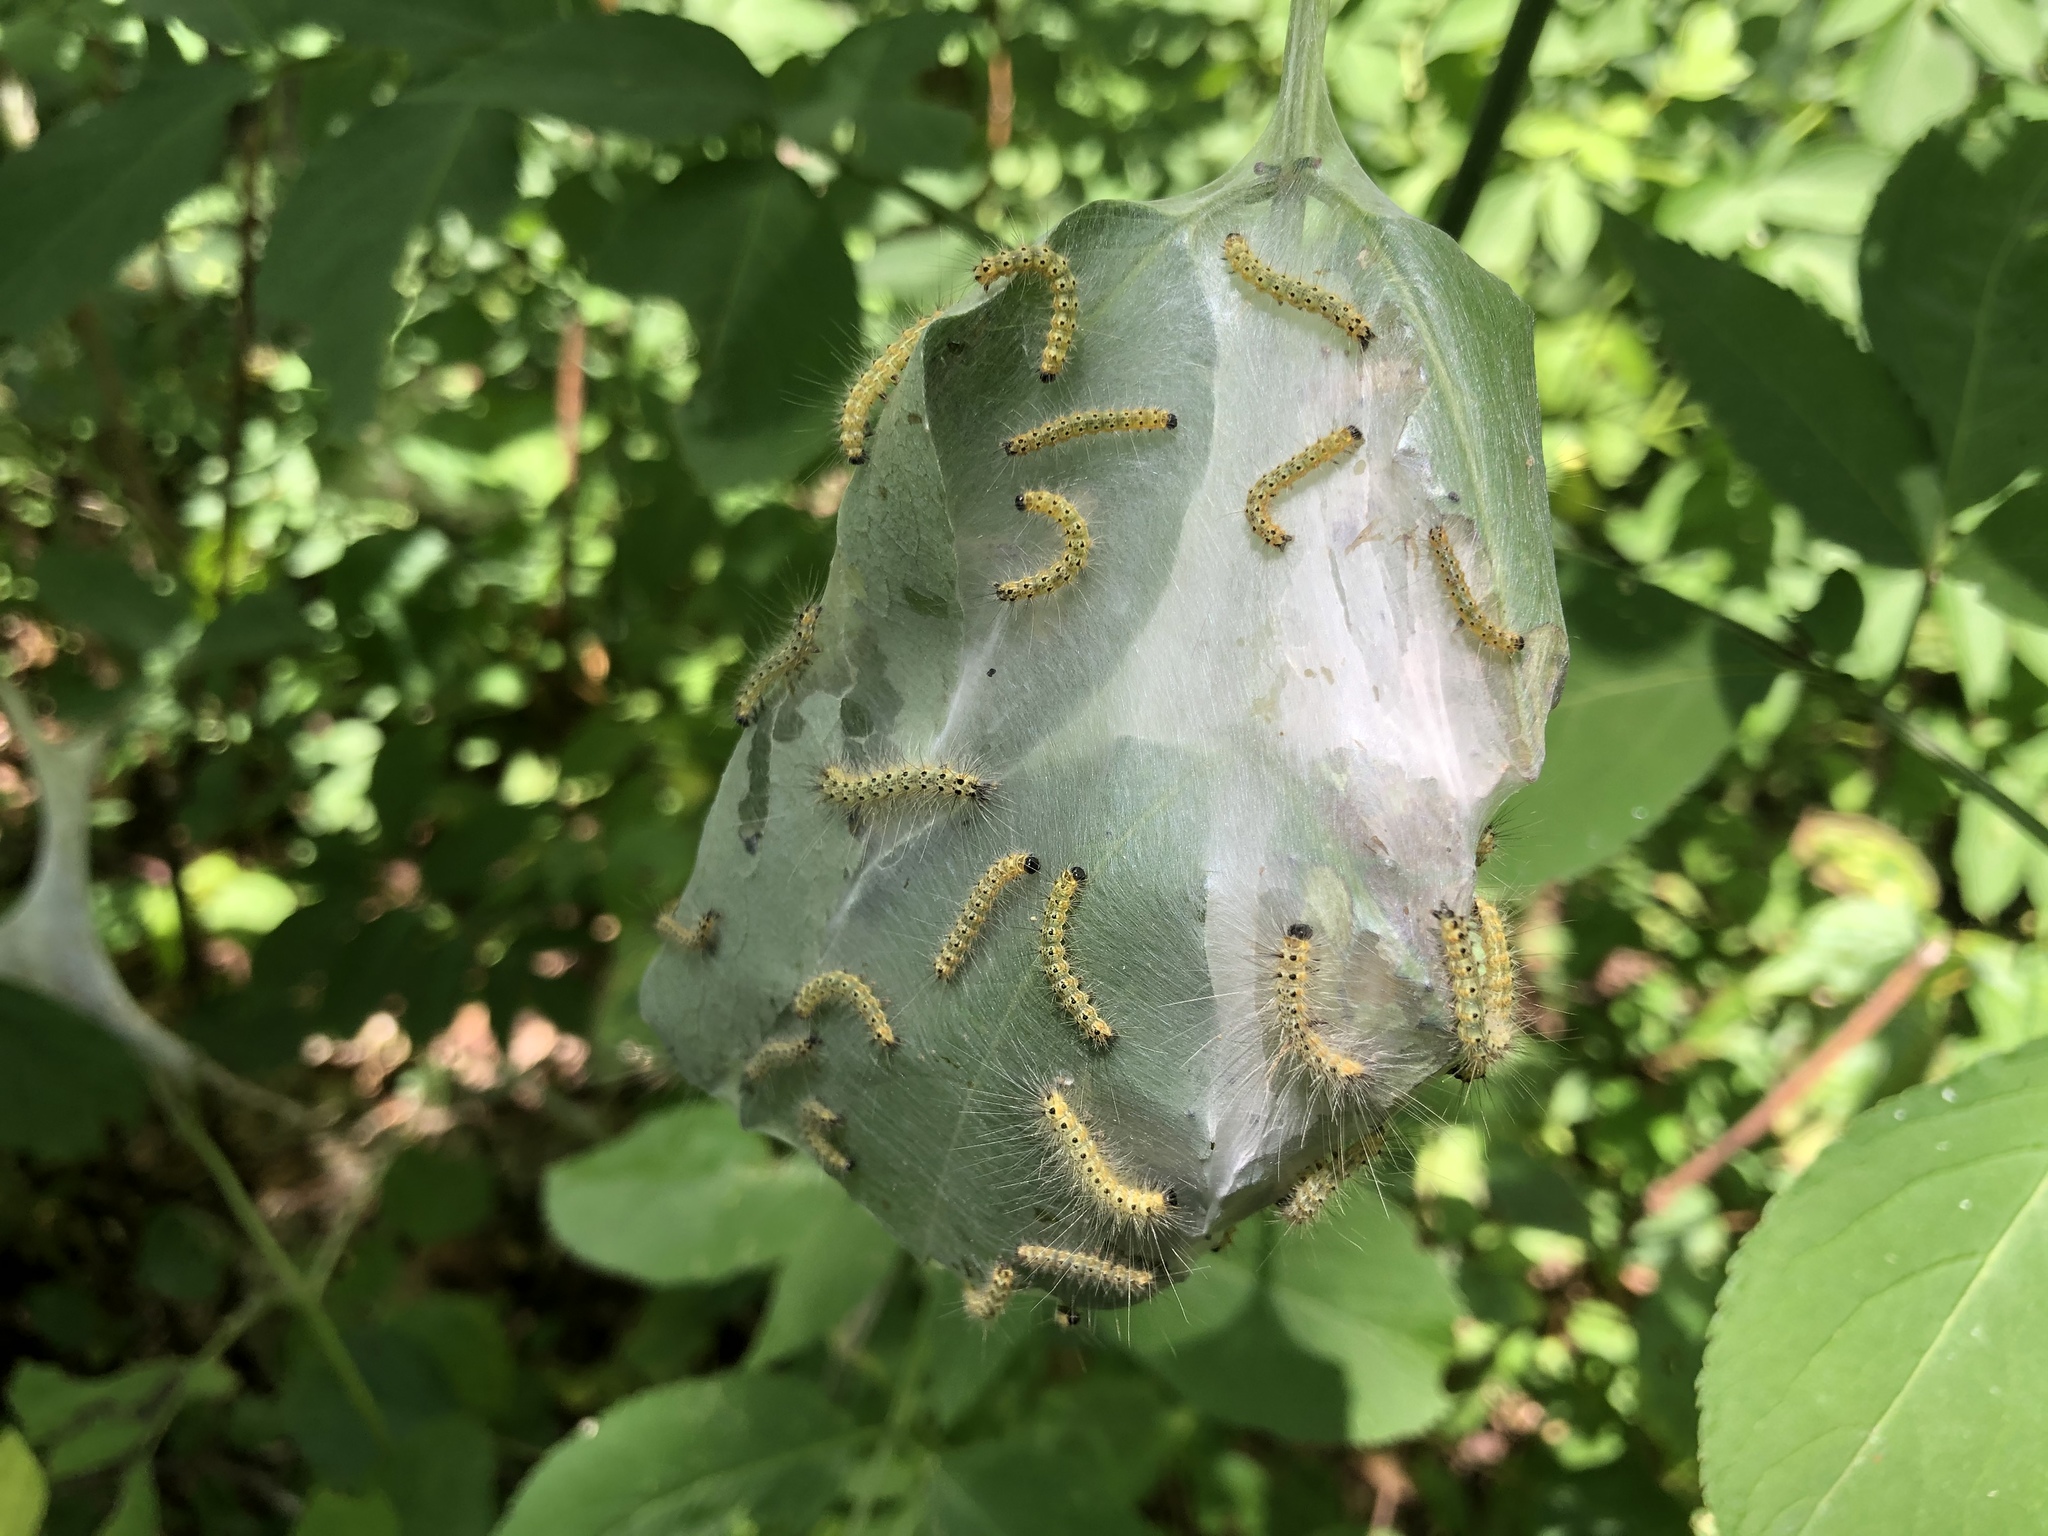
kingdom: Animalia
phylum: Arthropoda
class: Insecta
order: Lepidoptera
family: Erebidae
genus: Hyphantria
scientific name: Hyphantria cunea
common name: American white moth
